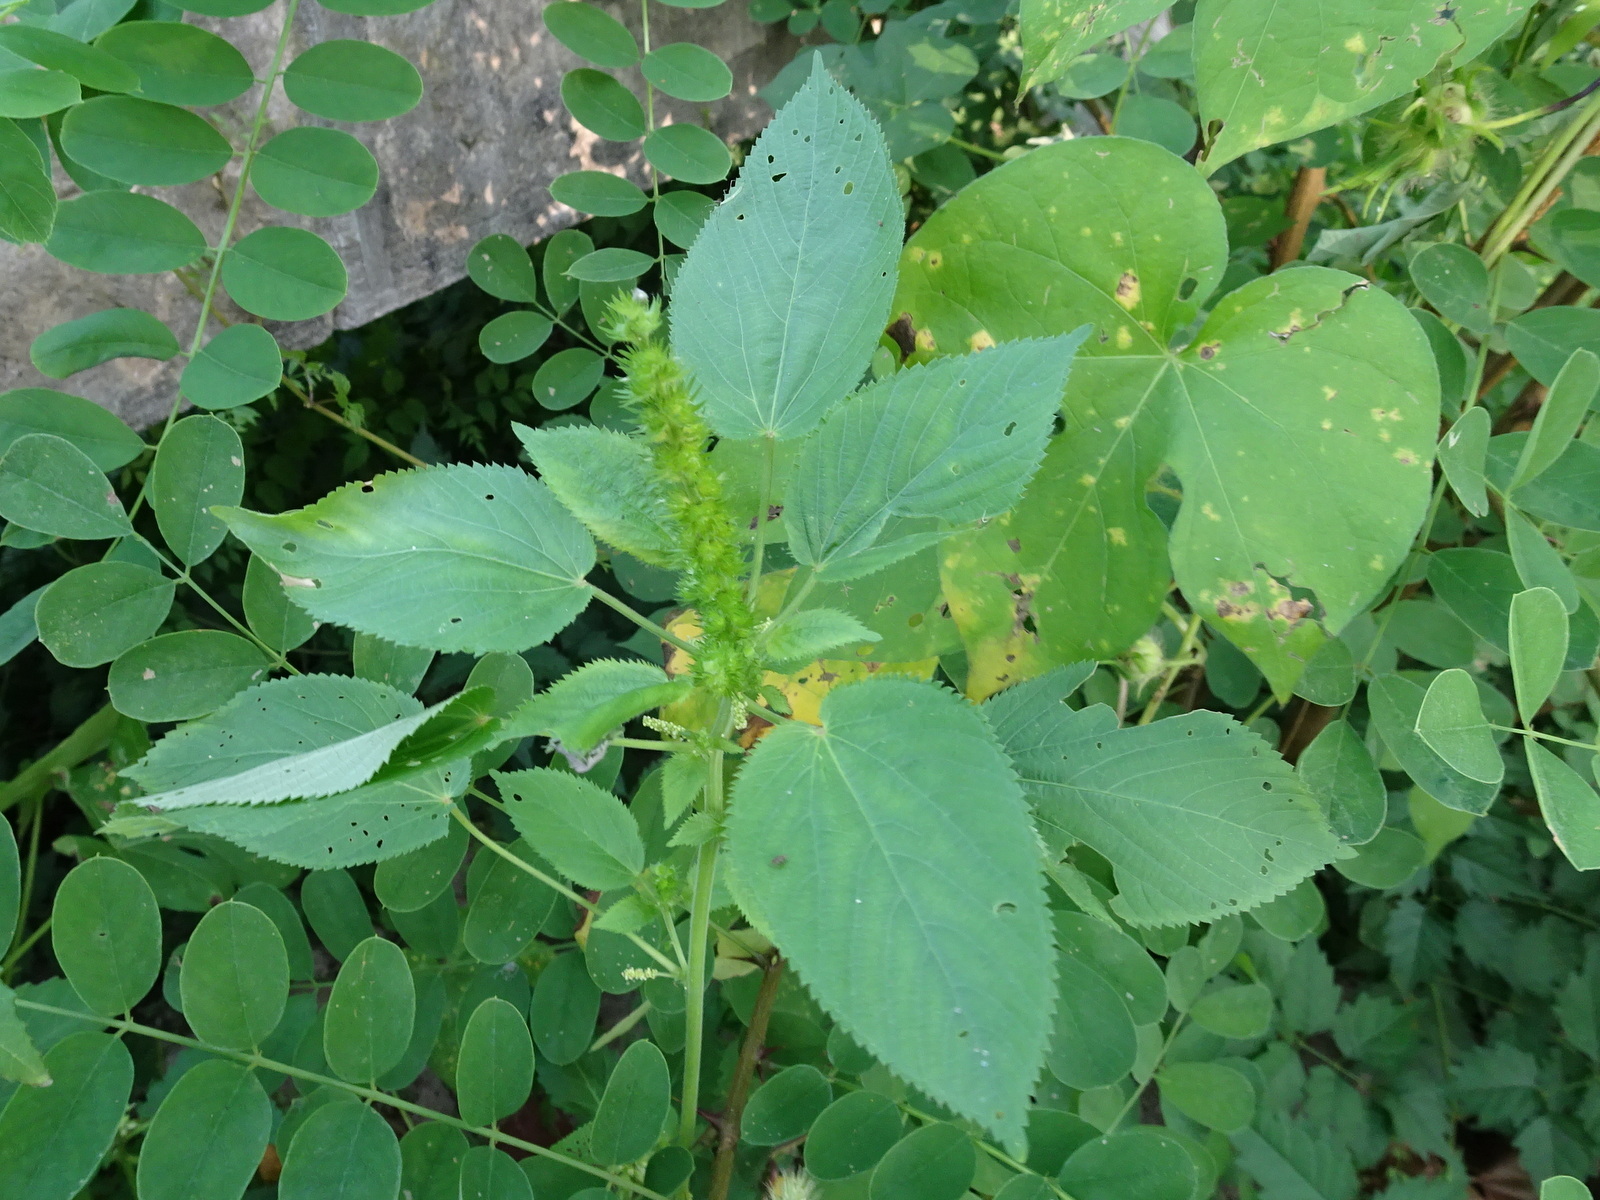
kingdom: Plantae
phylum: Tracheophyta
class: Magnoliopsida
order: Malpighiales
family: Euphorbiaceae
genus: Acalypha
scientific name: Acalypha ostryifolia
